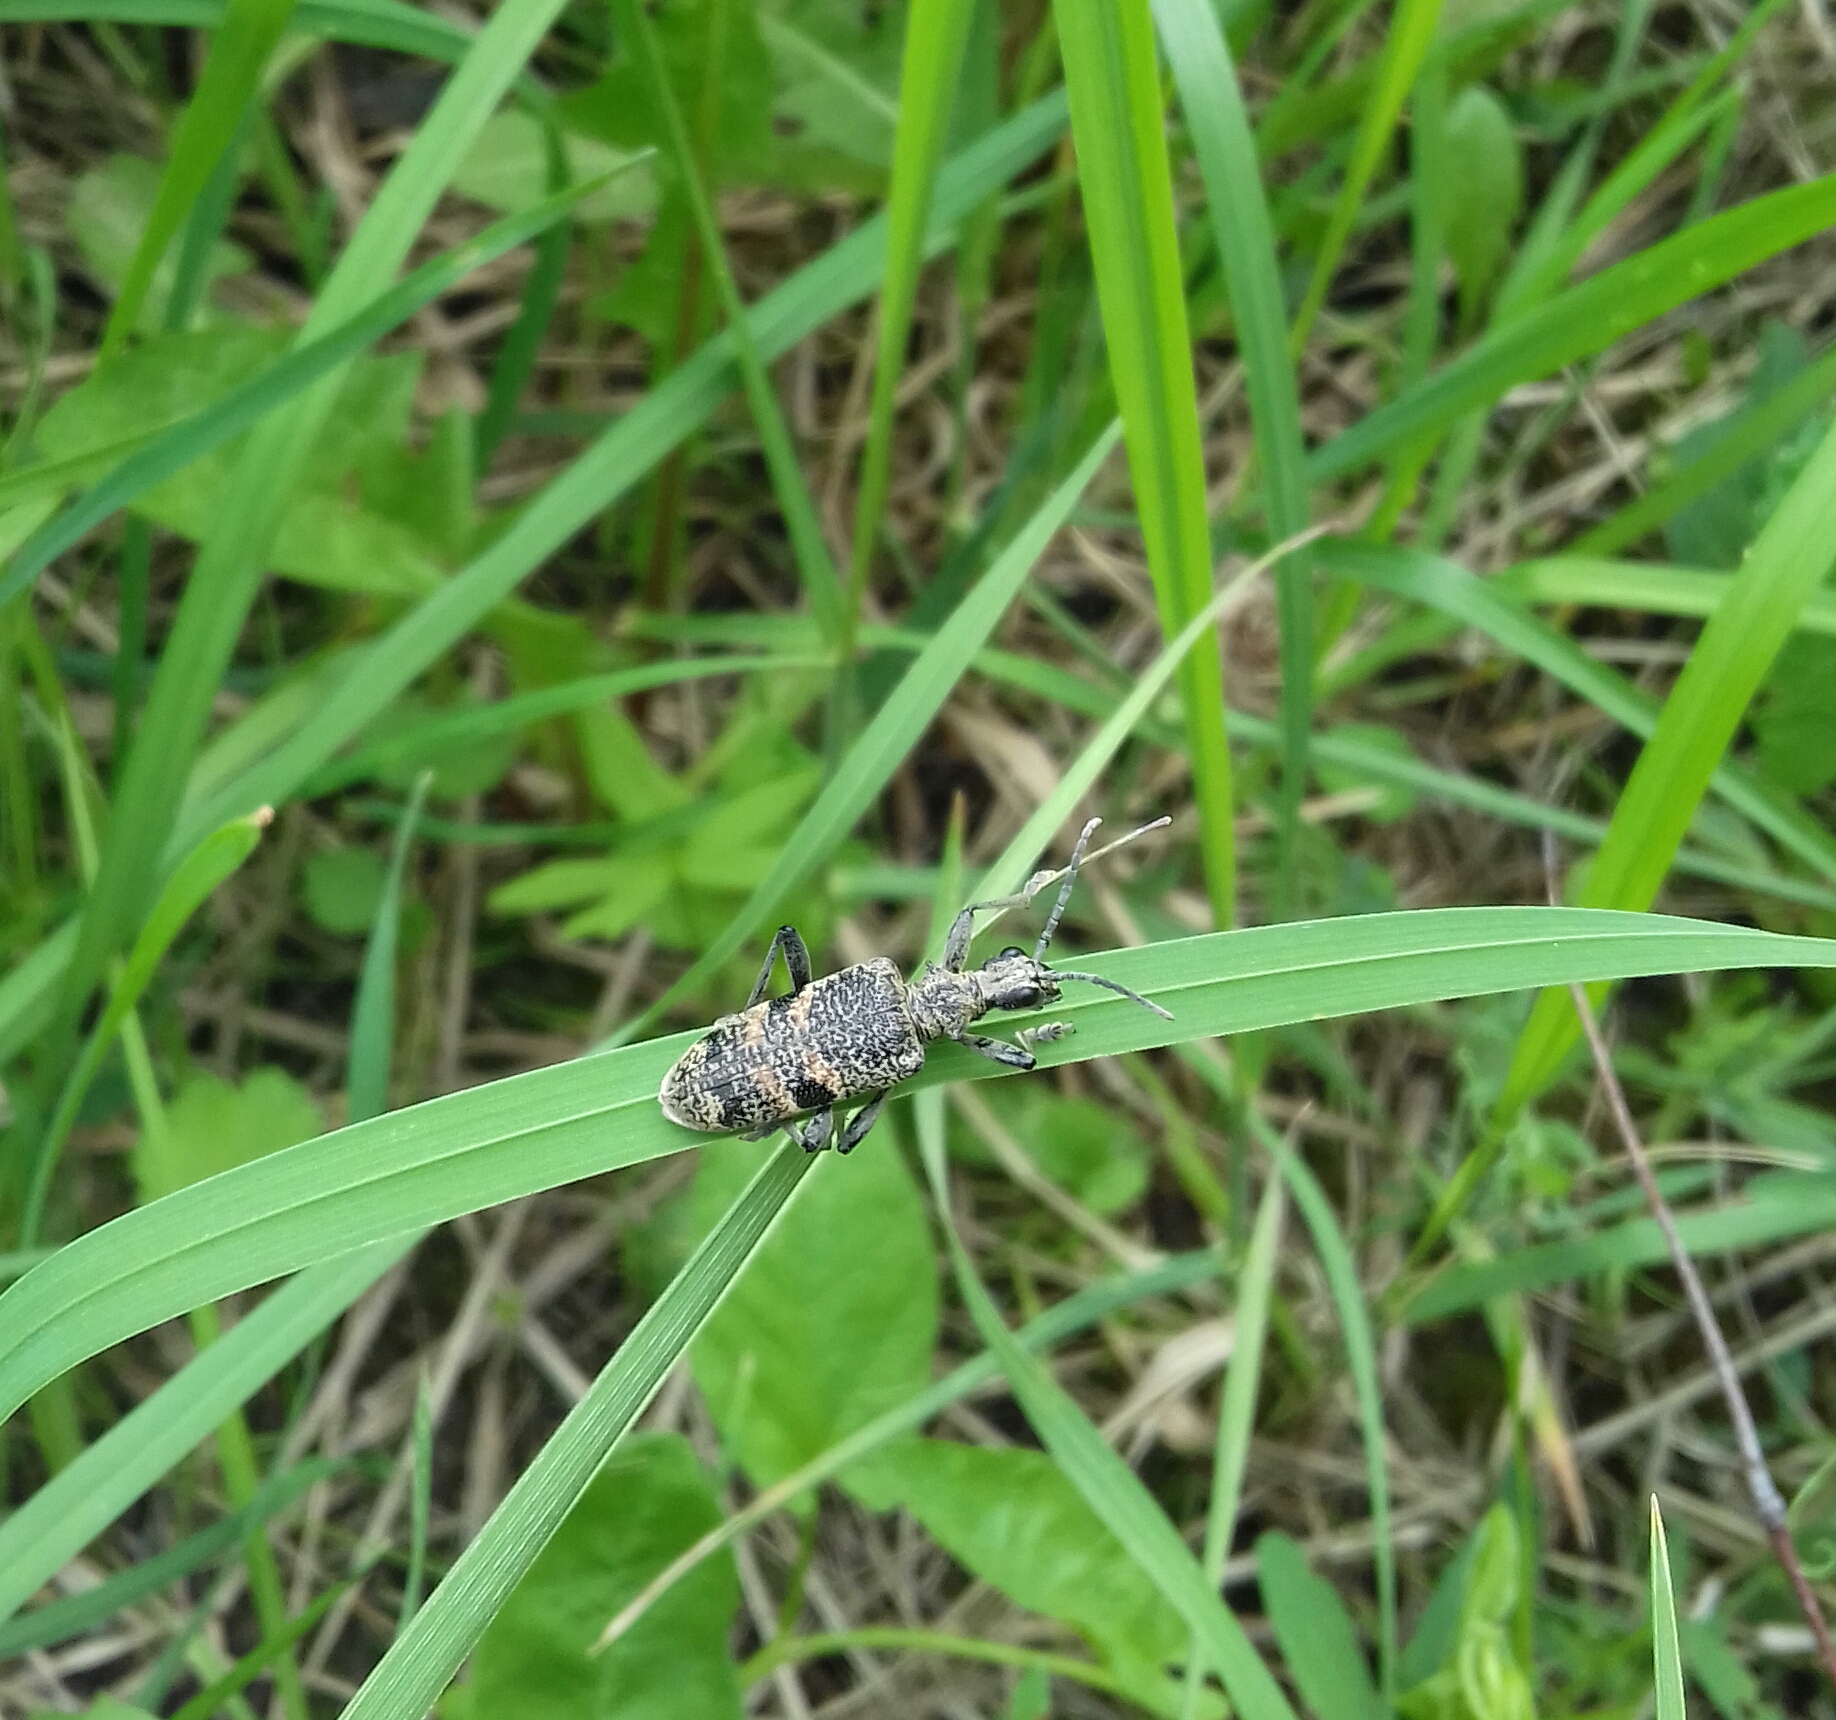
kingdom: Animalia
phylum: Arthropoda
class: Insecta
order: Coleoptera
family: Cerambycidae
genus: Rhagium
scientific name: Rhagium mordax
